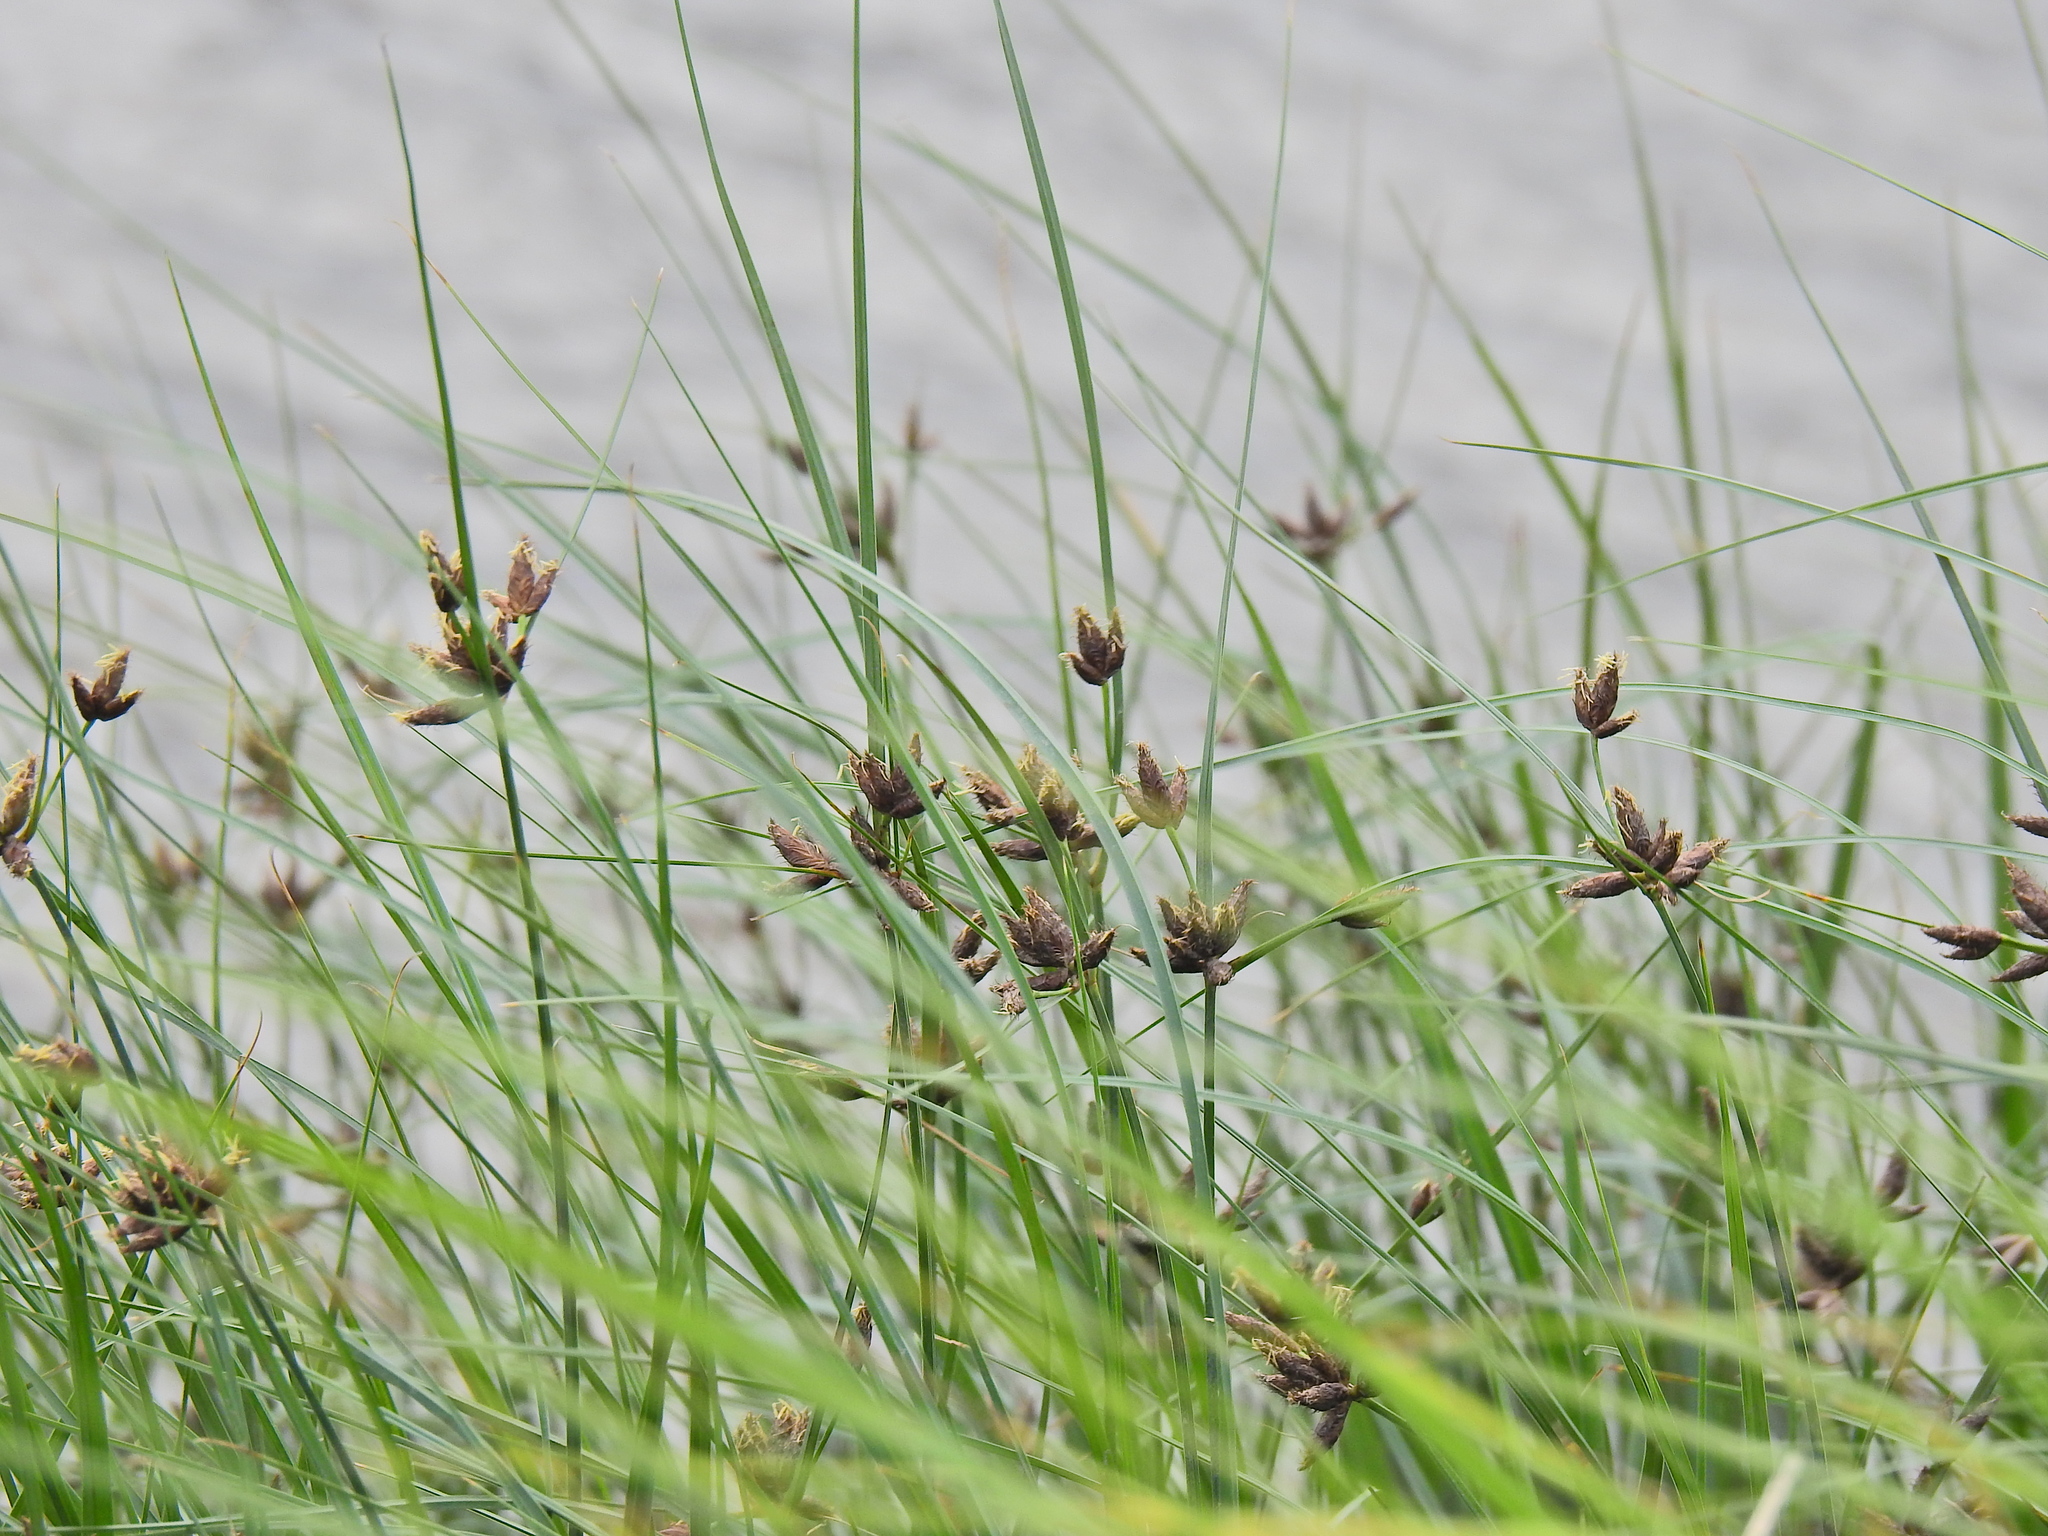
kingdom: Plantae
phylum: Tracheophyta
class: Liliopsida
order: Poales
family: Cyperaceae
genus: Bolboschoenus
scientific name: Bolboschoenus maritimus
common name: Sea club-rush
